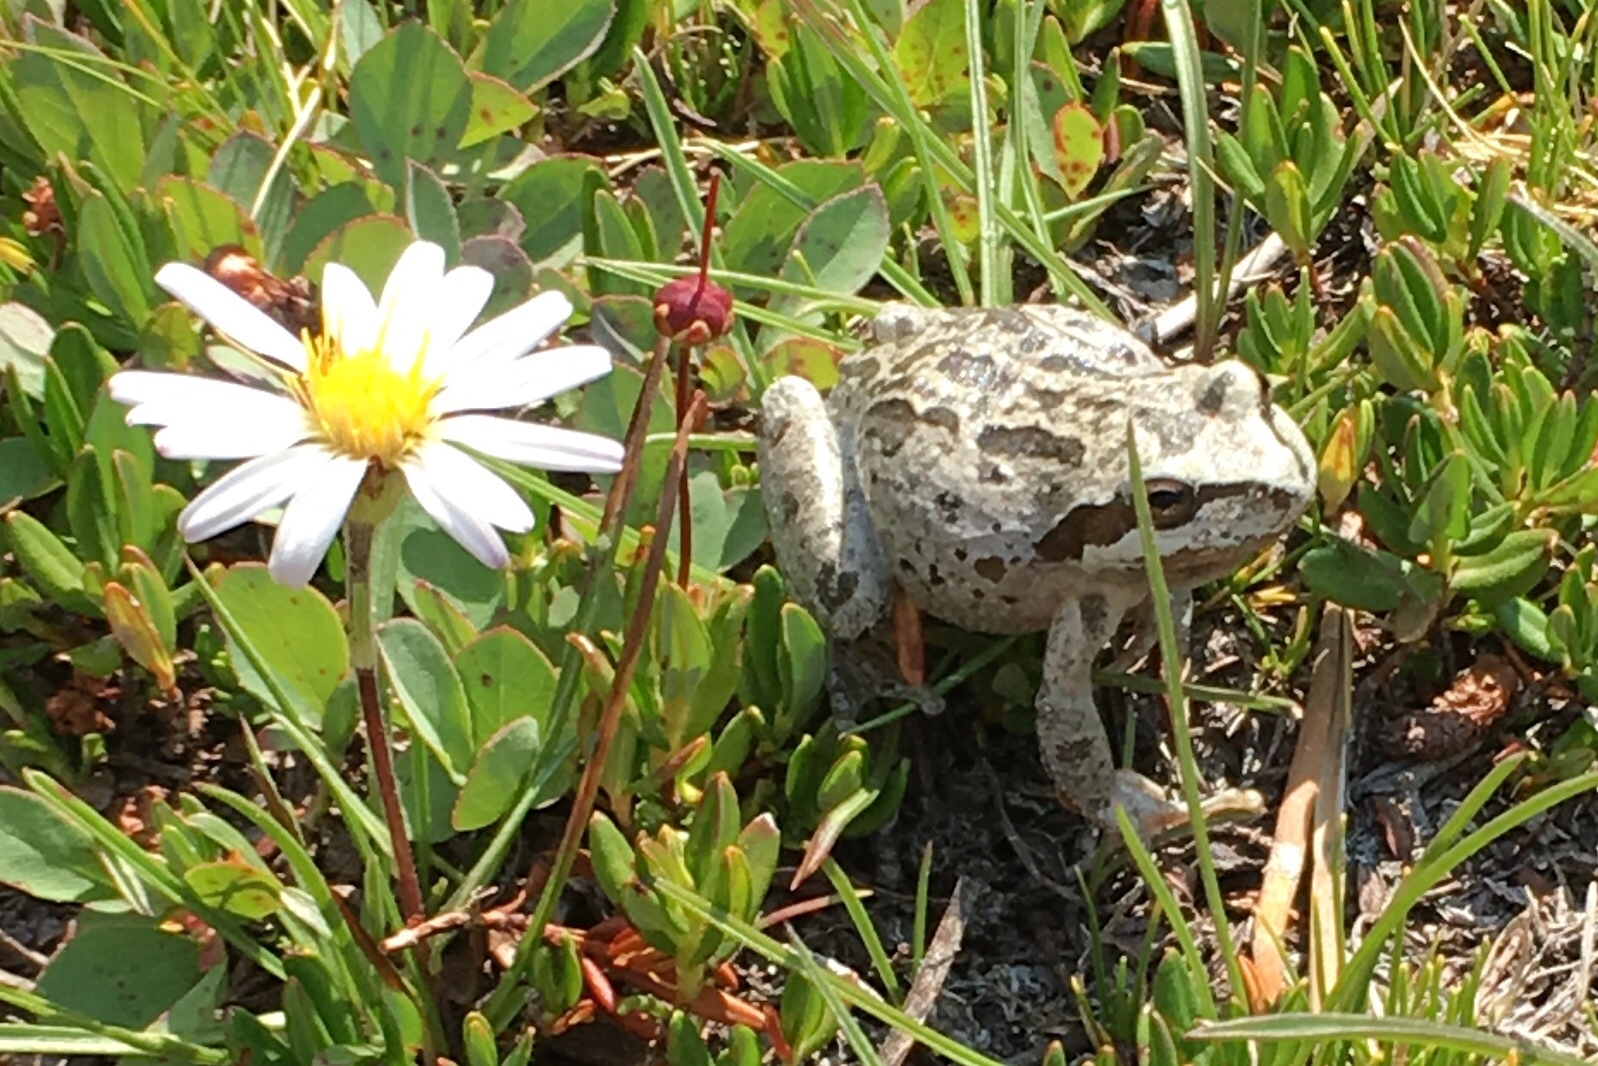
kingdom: Animalia
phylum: Chordata
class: Amphibia
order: Anura
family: Hylidae
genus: Pseudacris
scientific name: Pseudacris regilla
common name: Pacific chorus frog
